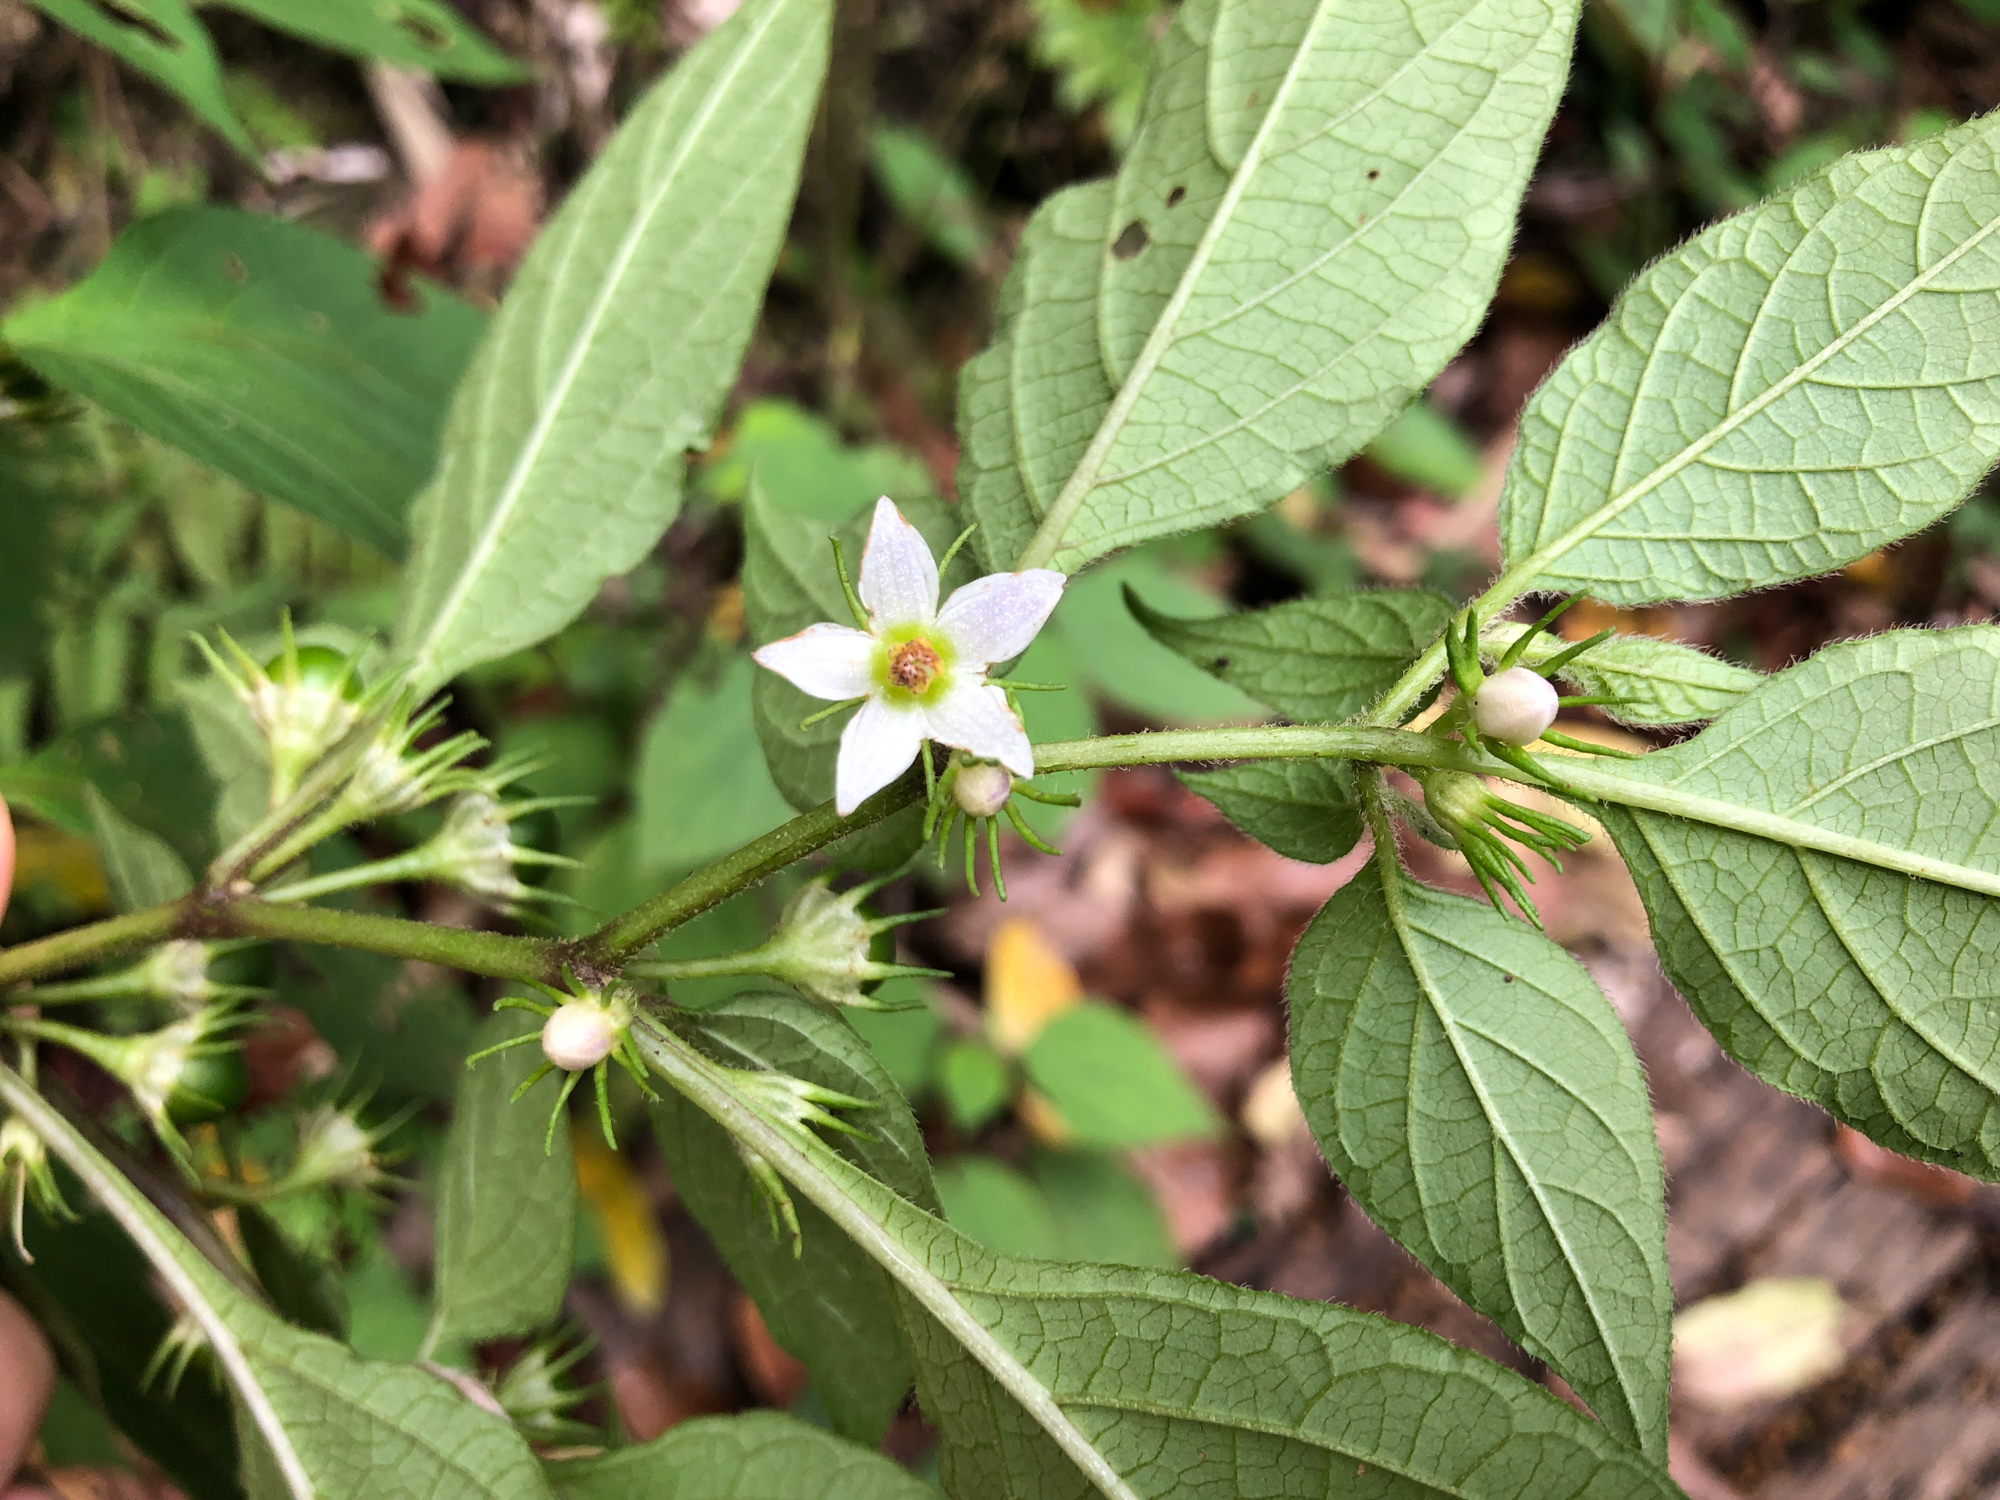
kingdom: Plantae
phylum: Tracheophyta
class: Magnoliopsida
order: Solanales
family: Solanaceae
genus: Lycianthes
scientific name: Lycianthes biflora
